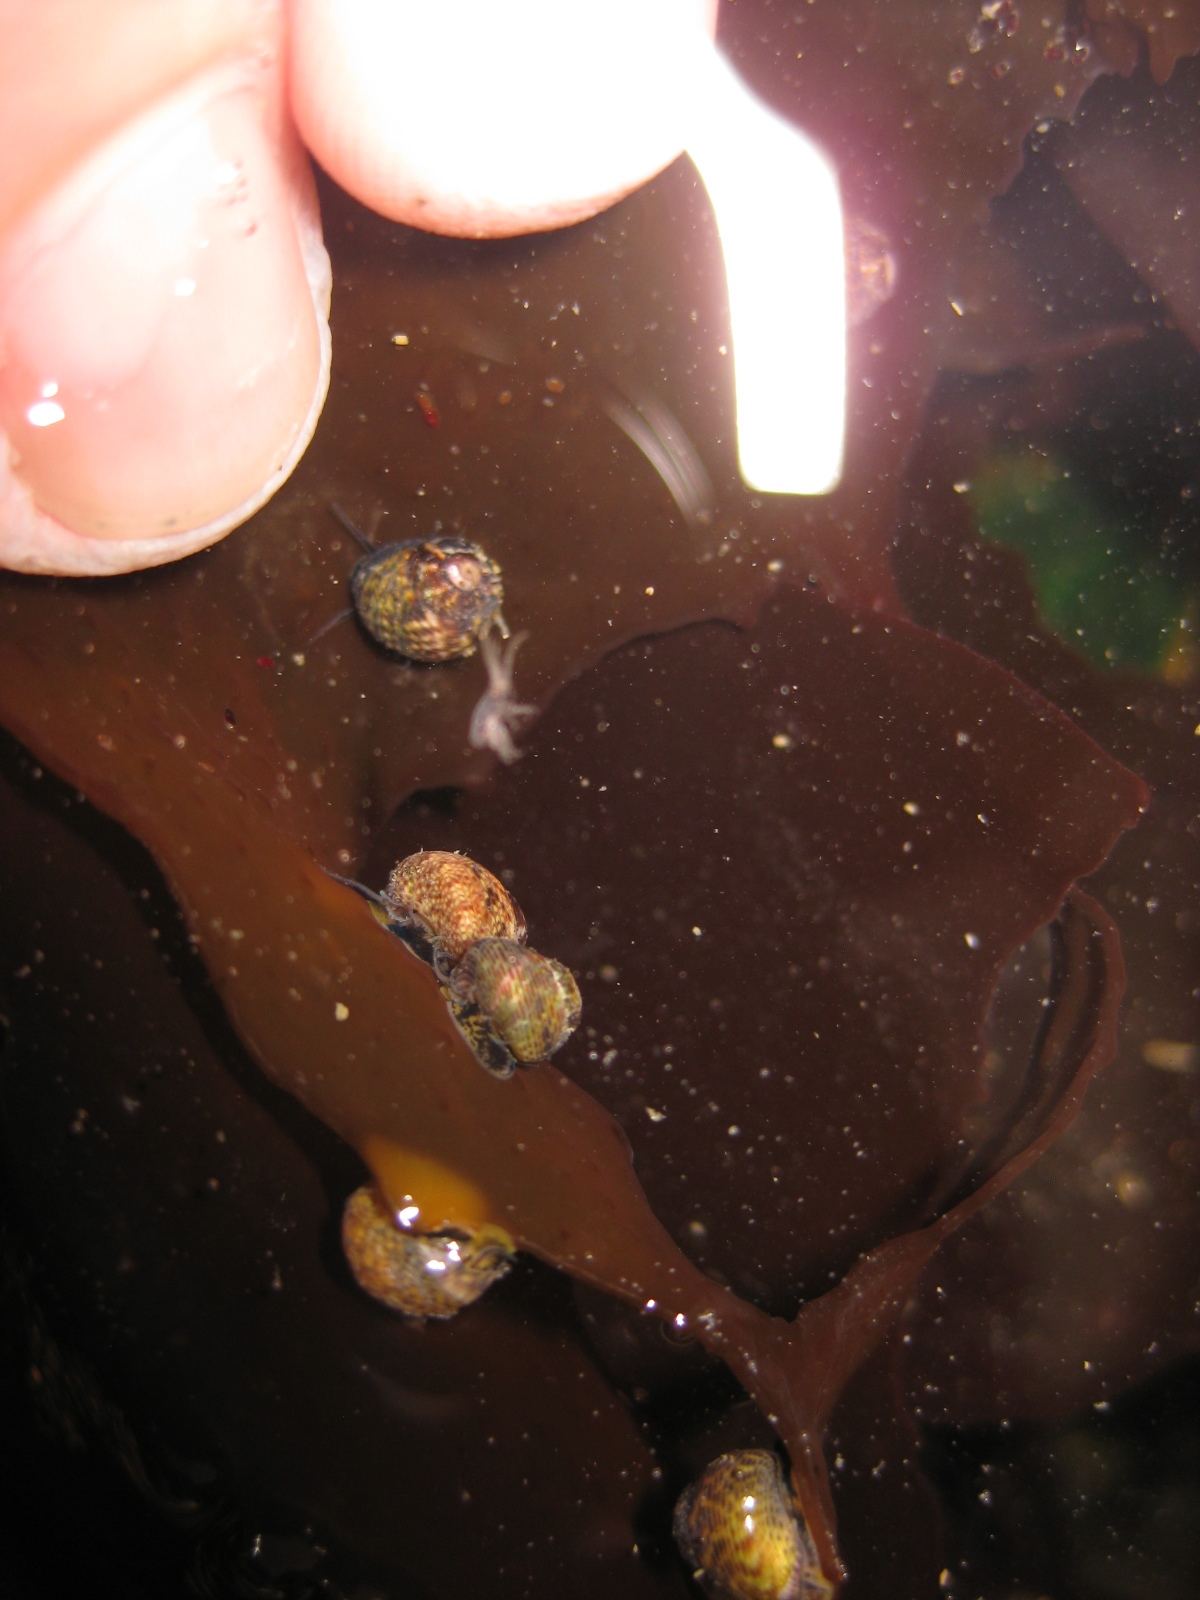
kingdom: Animalia
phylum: Mollusca
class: Gastropoda
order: Trochida
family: Trochidae
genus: Micrelenchus
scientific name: Micrelenchus tessellatus
